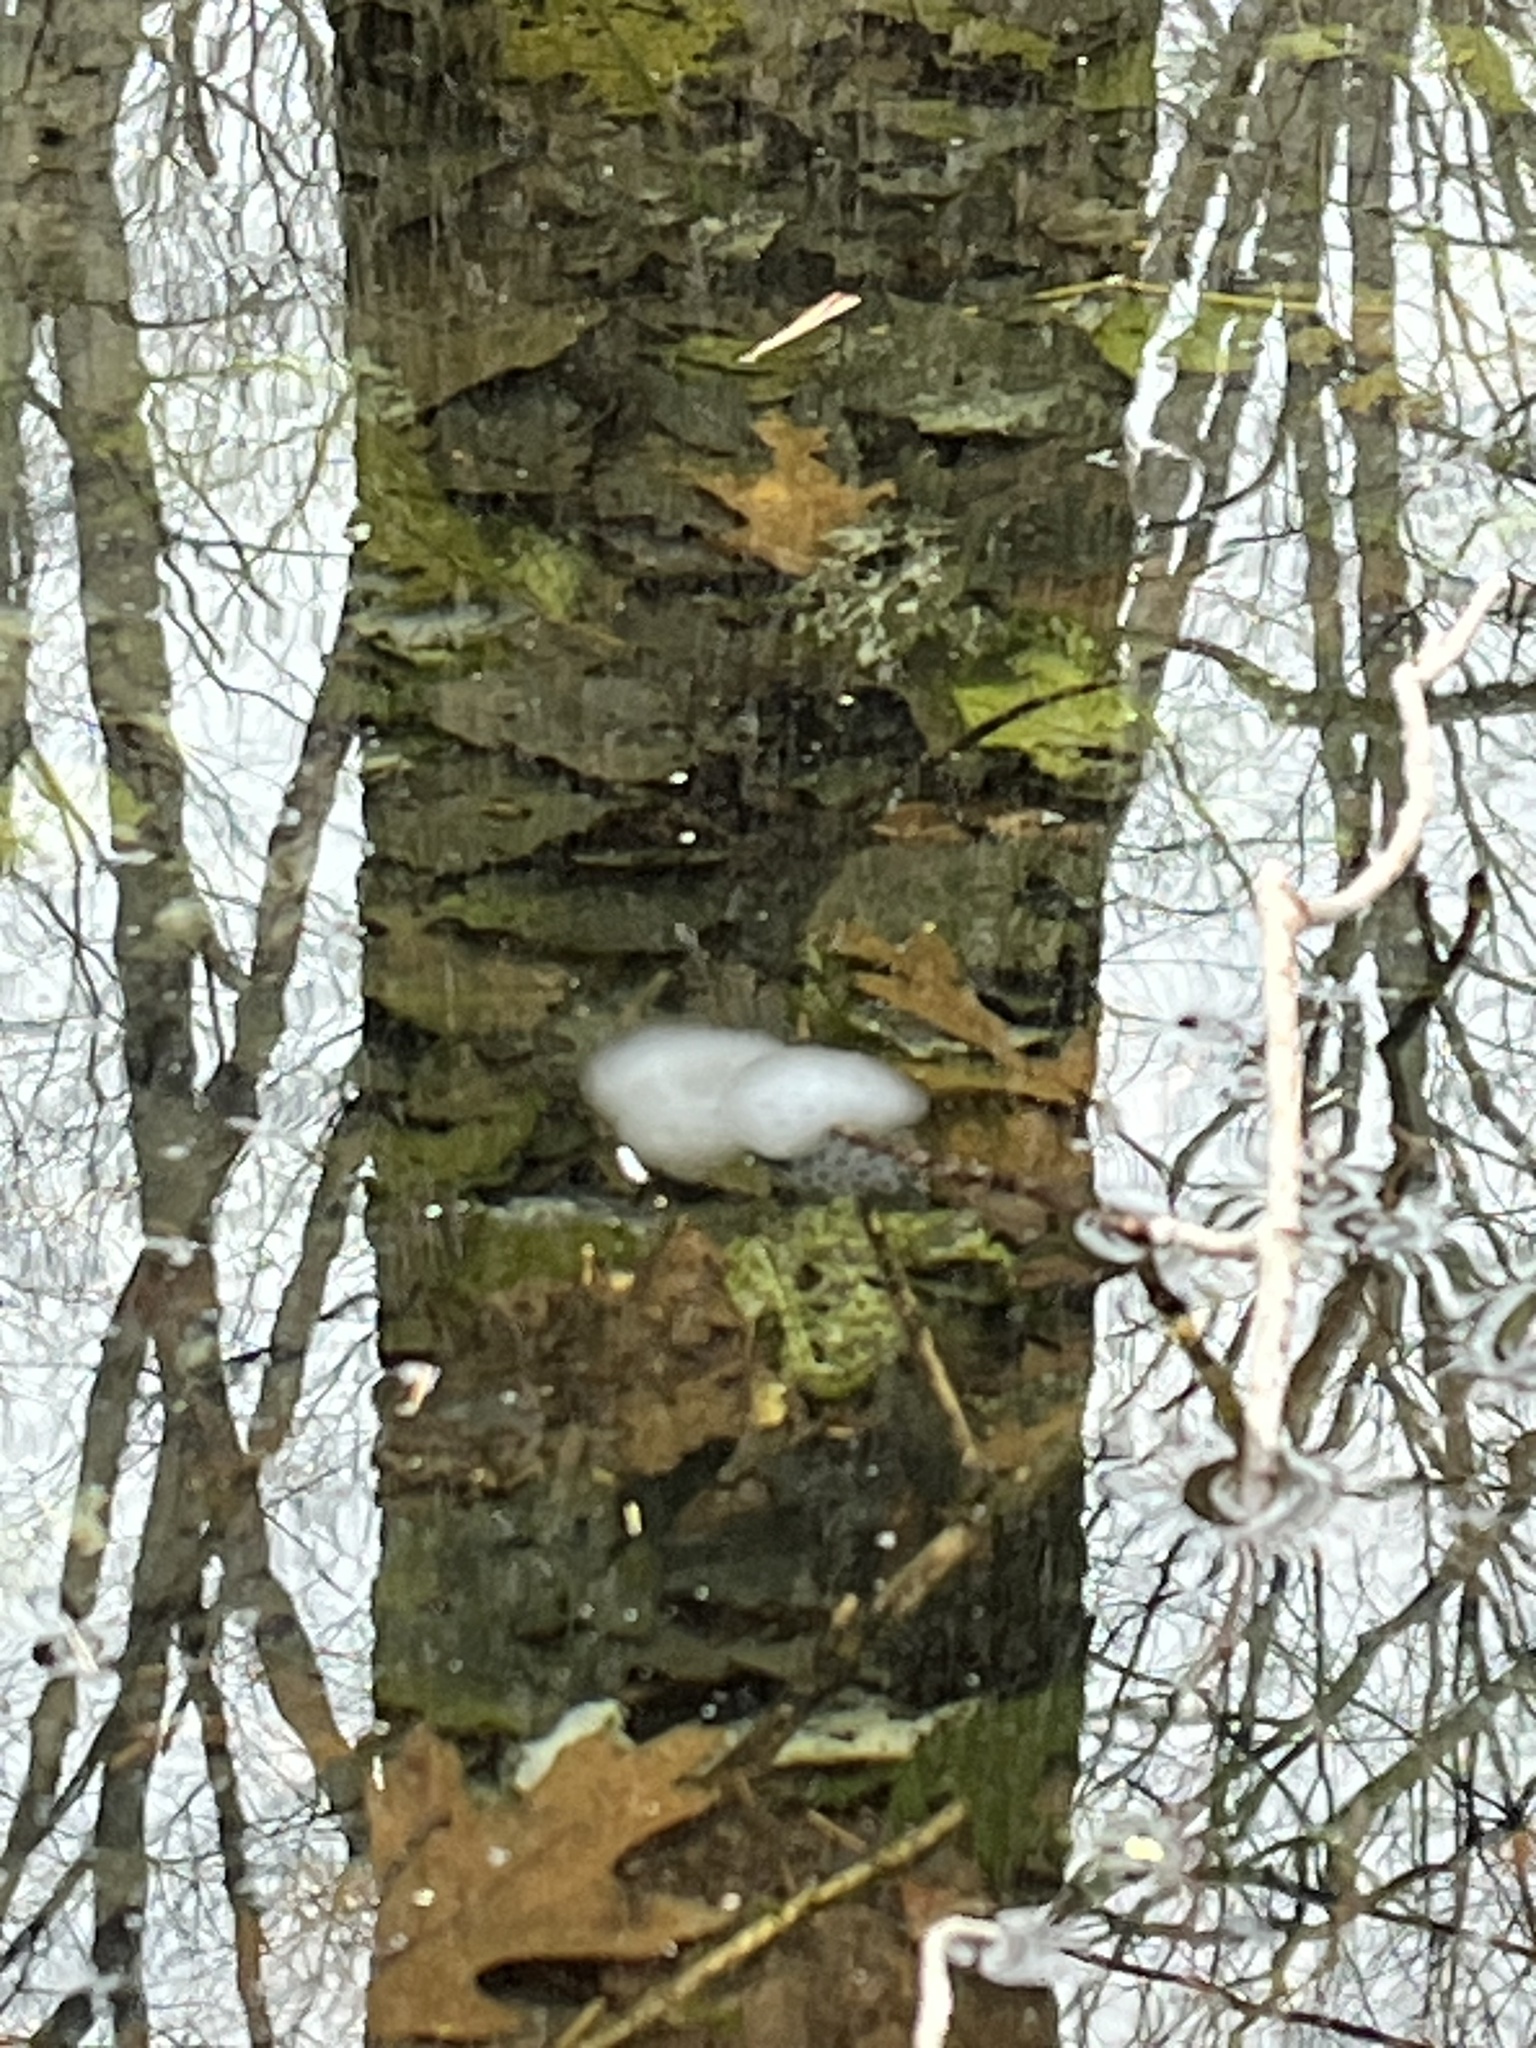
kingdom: Animalia
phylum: Chordata
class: Amphibia
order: Caudata
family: Ambystomatidae
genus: Ambystoma
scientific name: Ambystoma maculatum
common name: Spotted salamander
